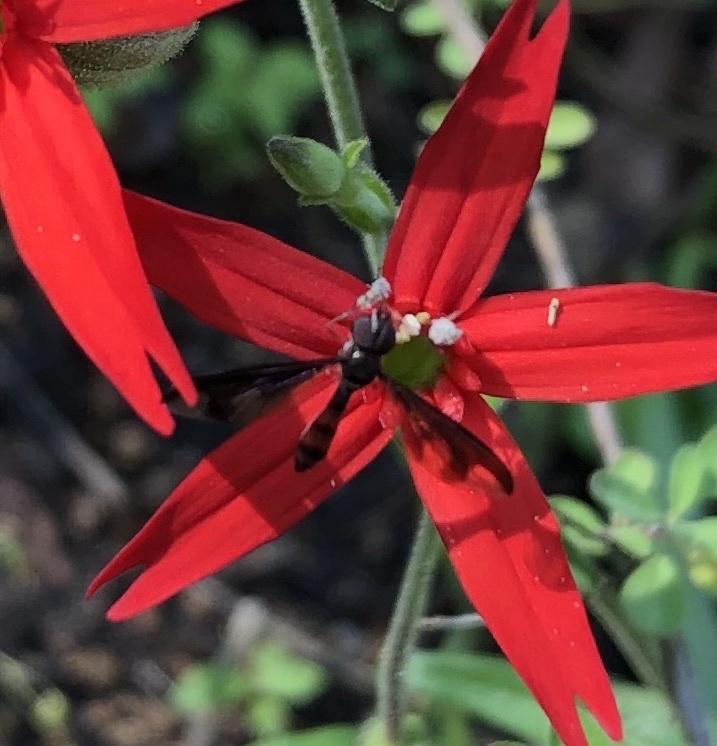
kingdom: Animalia
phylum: Arthropoda
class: Insecta
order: Diptera
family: Syrphidae
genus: Ocyptamus
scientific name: Ocyptamus fuscipennis
